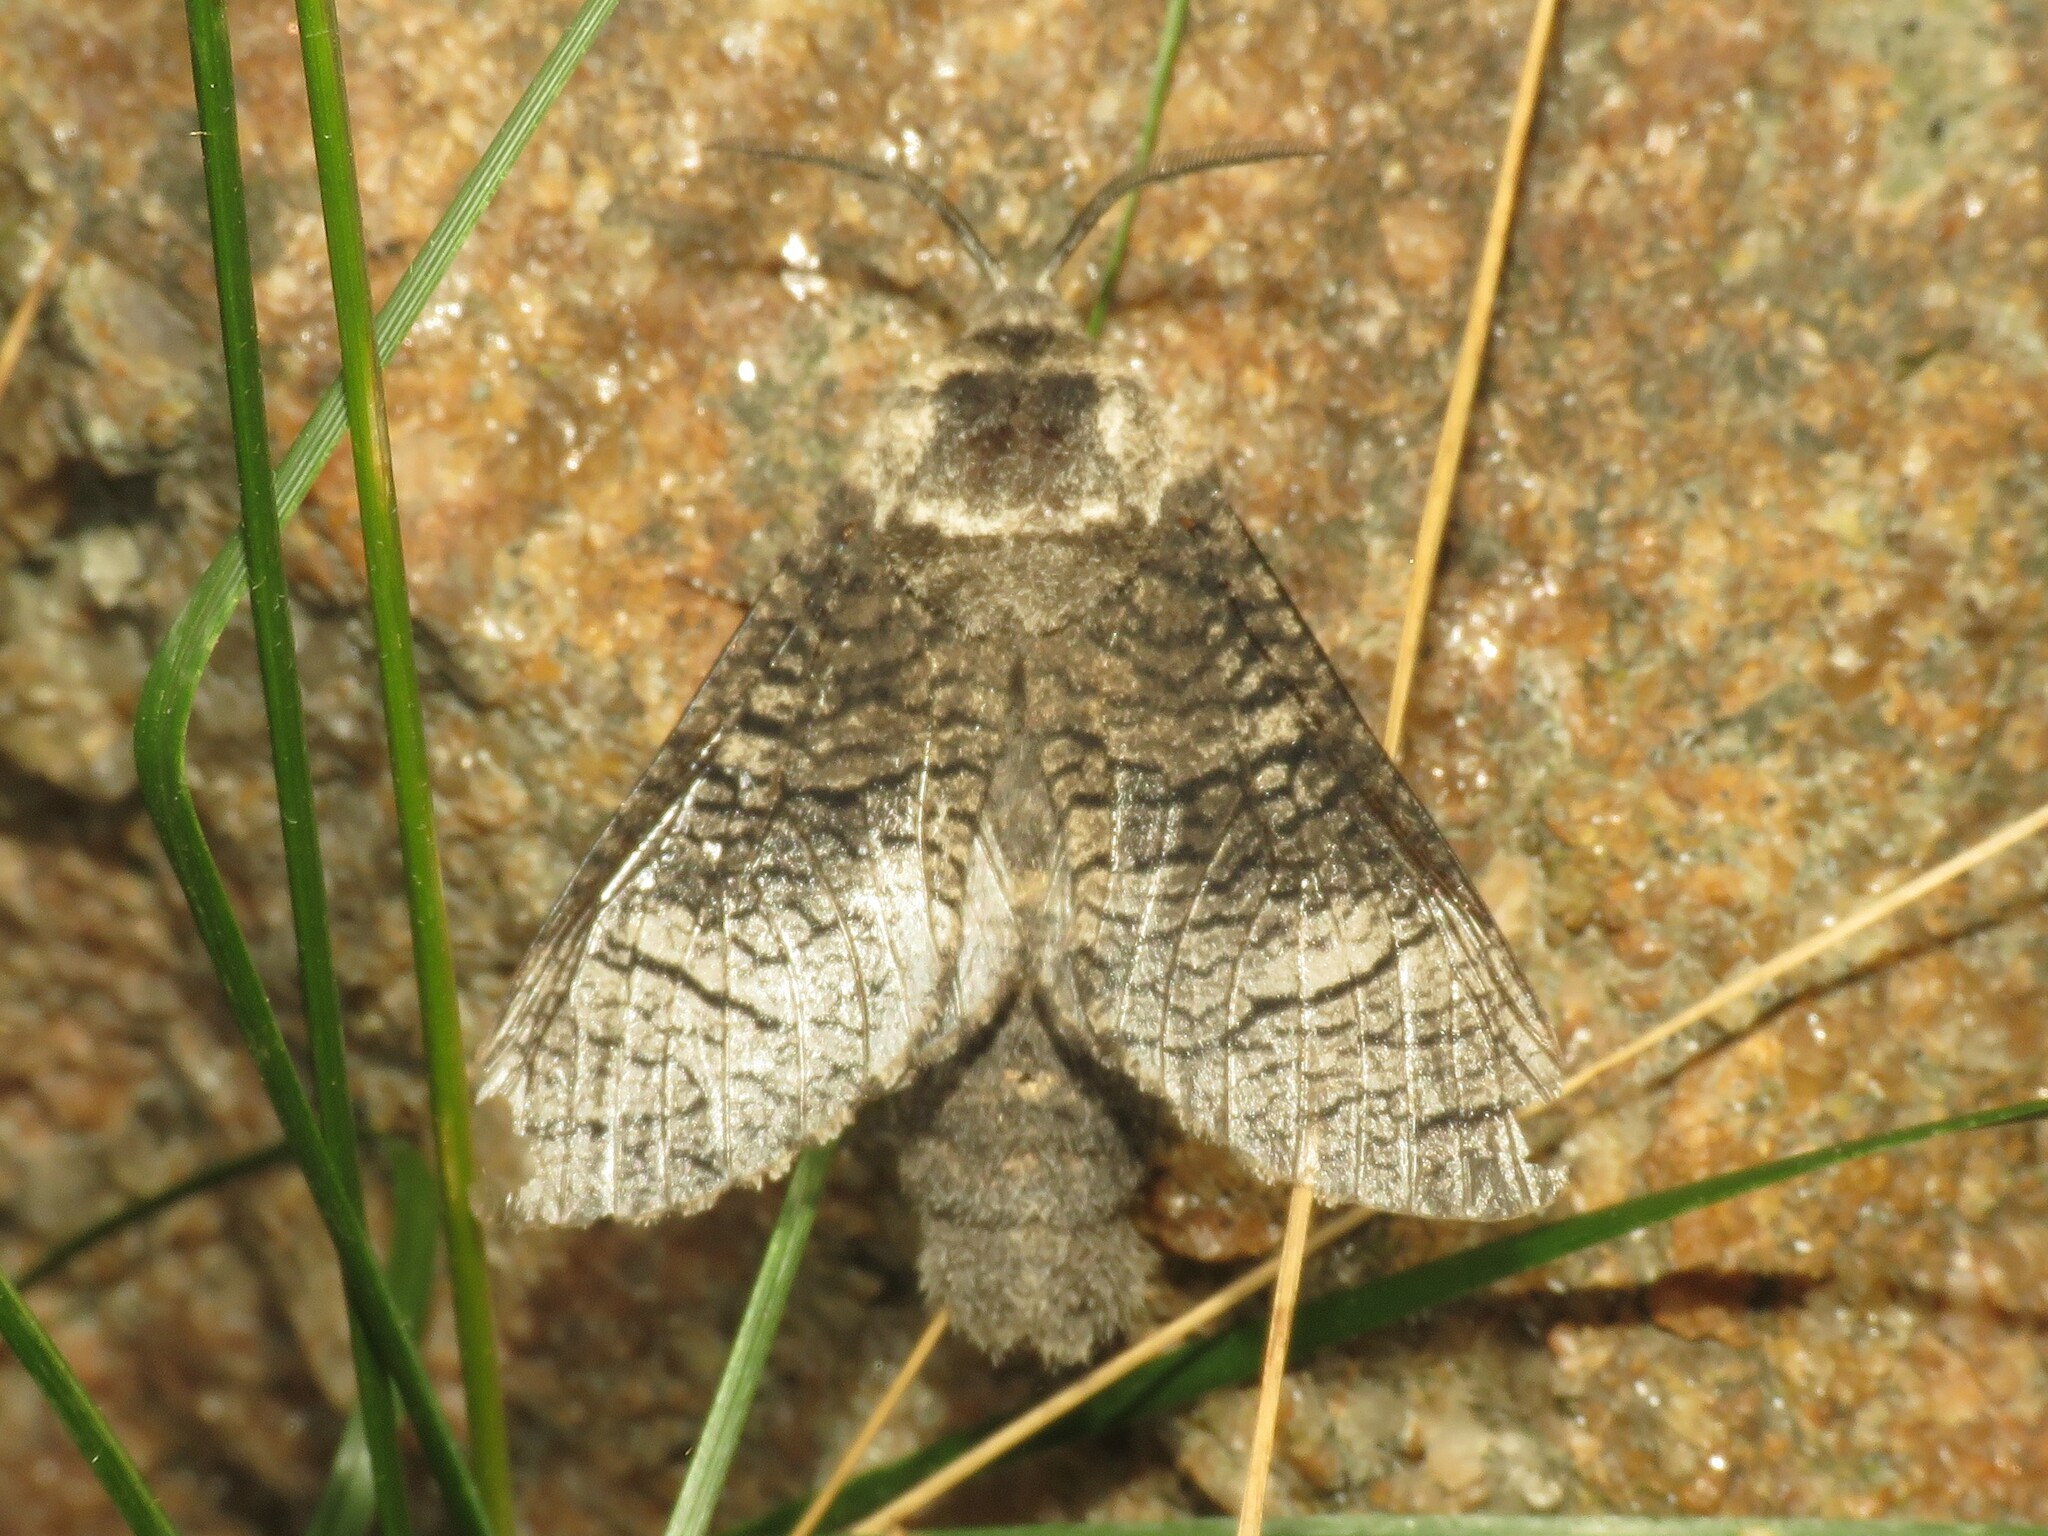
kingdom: Animalia
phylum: Arthropoda
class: Insecta
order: Lepidoptera
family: Cossidae
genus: Acossus
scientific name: Acossus centerensis
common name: Poplar carpenterworm moth
